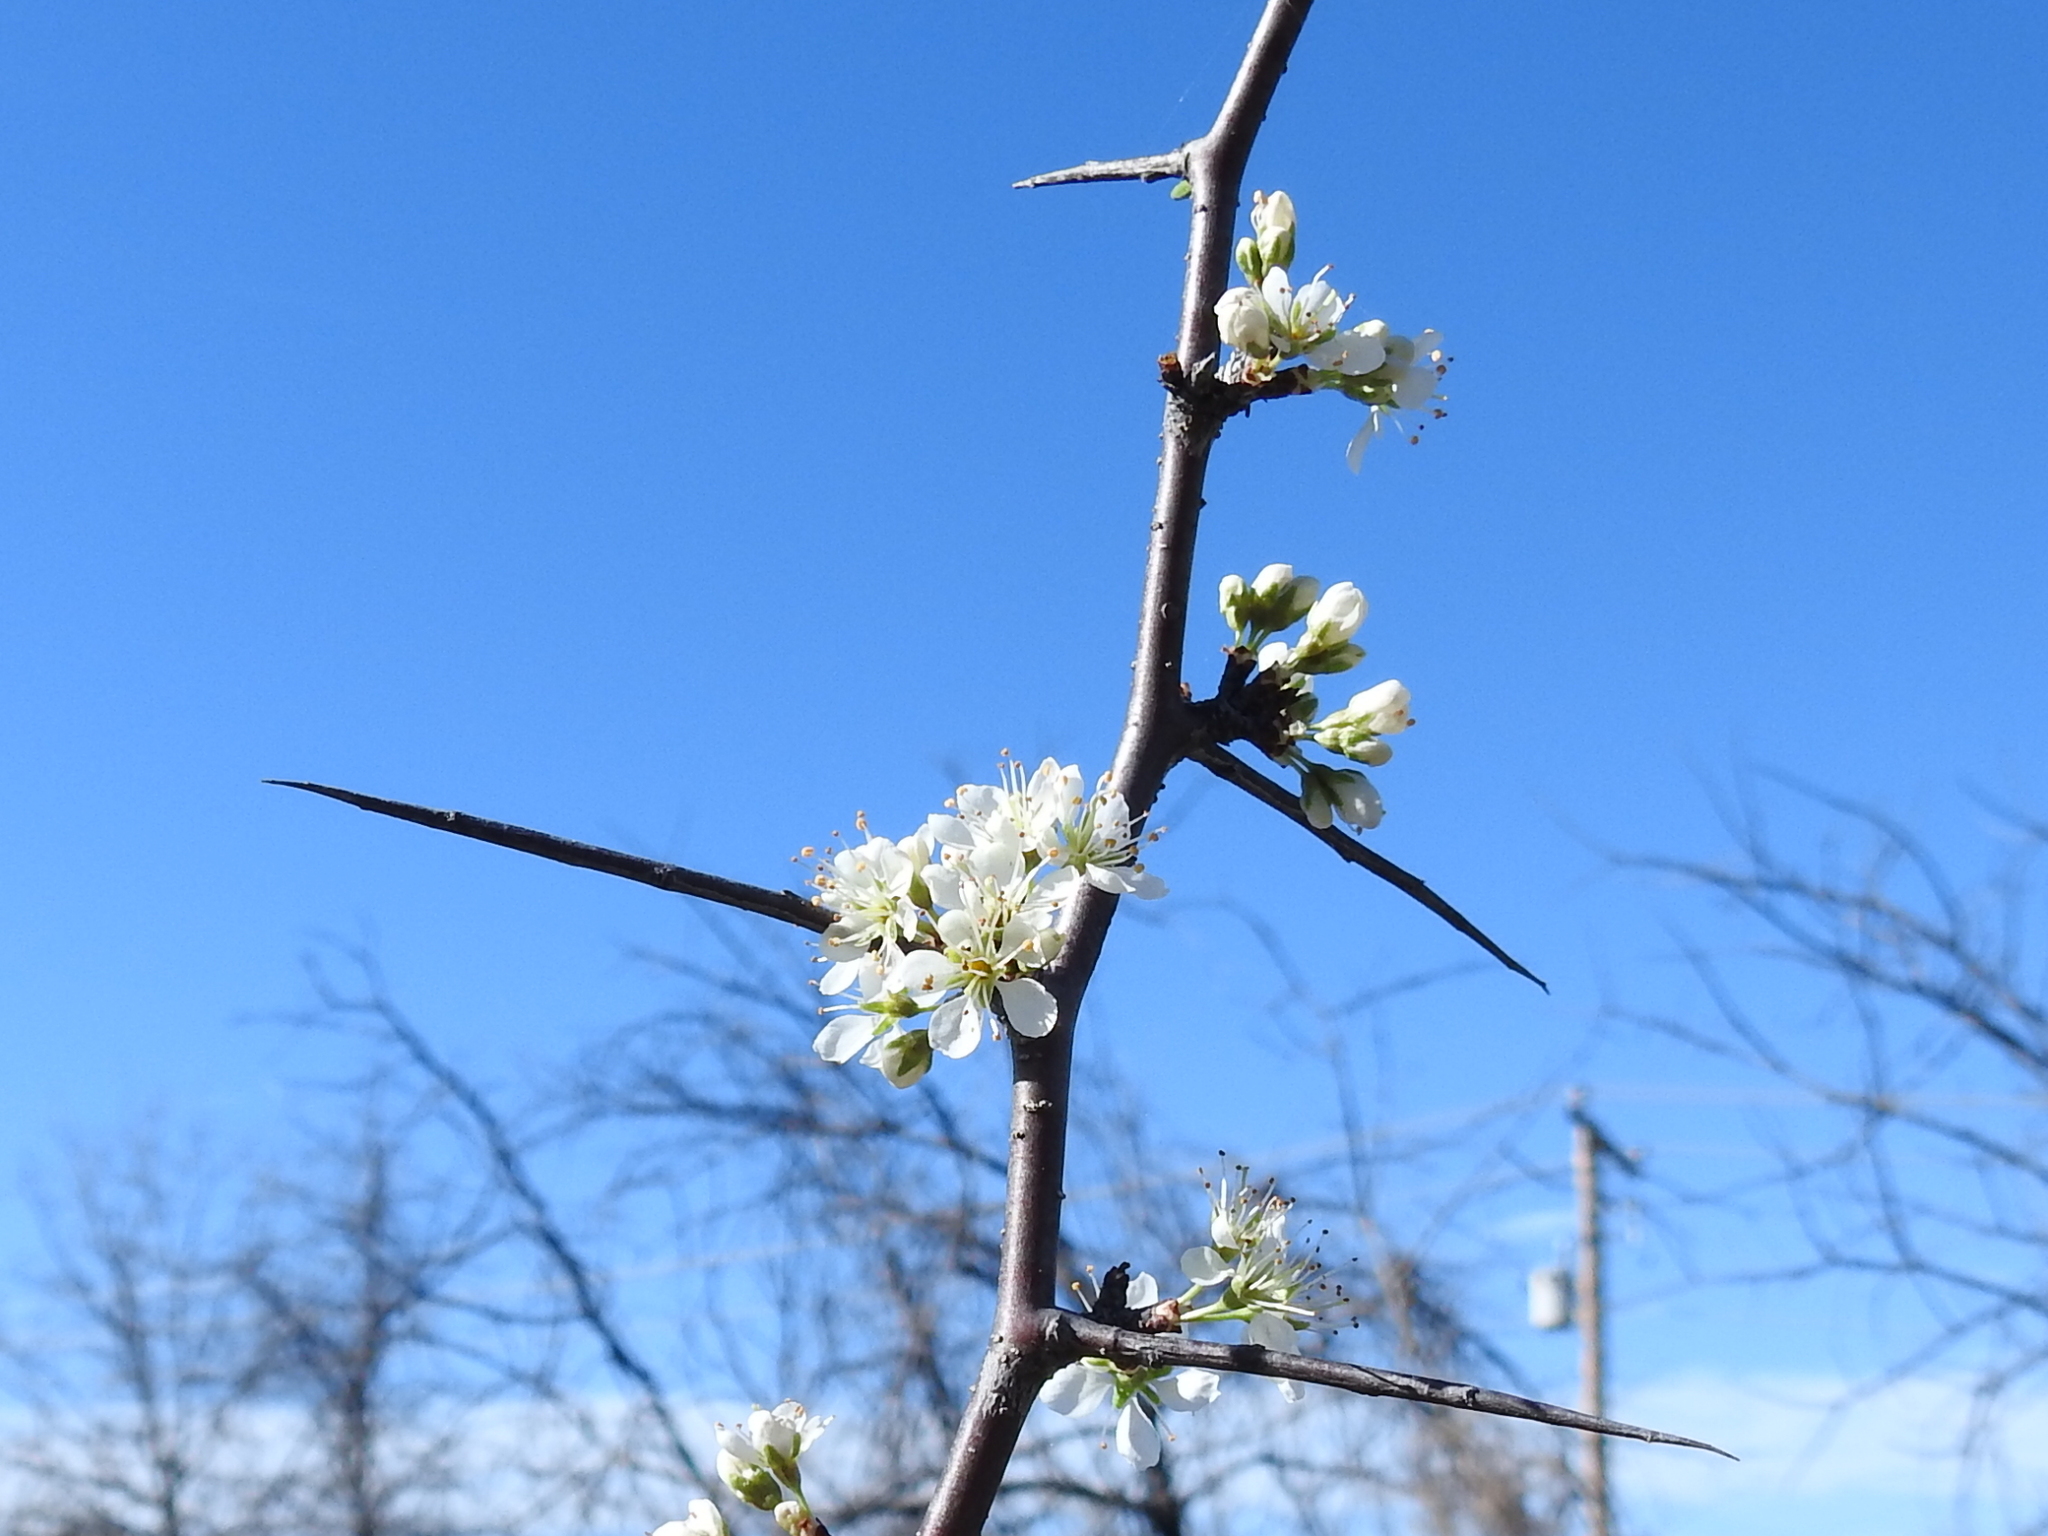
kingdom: Plantae
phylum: Tracheophyta
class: Magnoliopsida
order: Rosales
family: Rosaceae
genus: Prunus
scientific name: Prunus angustifolia
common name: Cherokee plum
